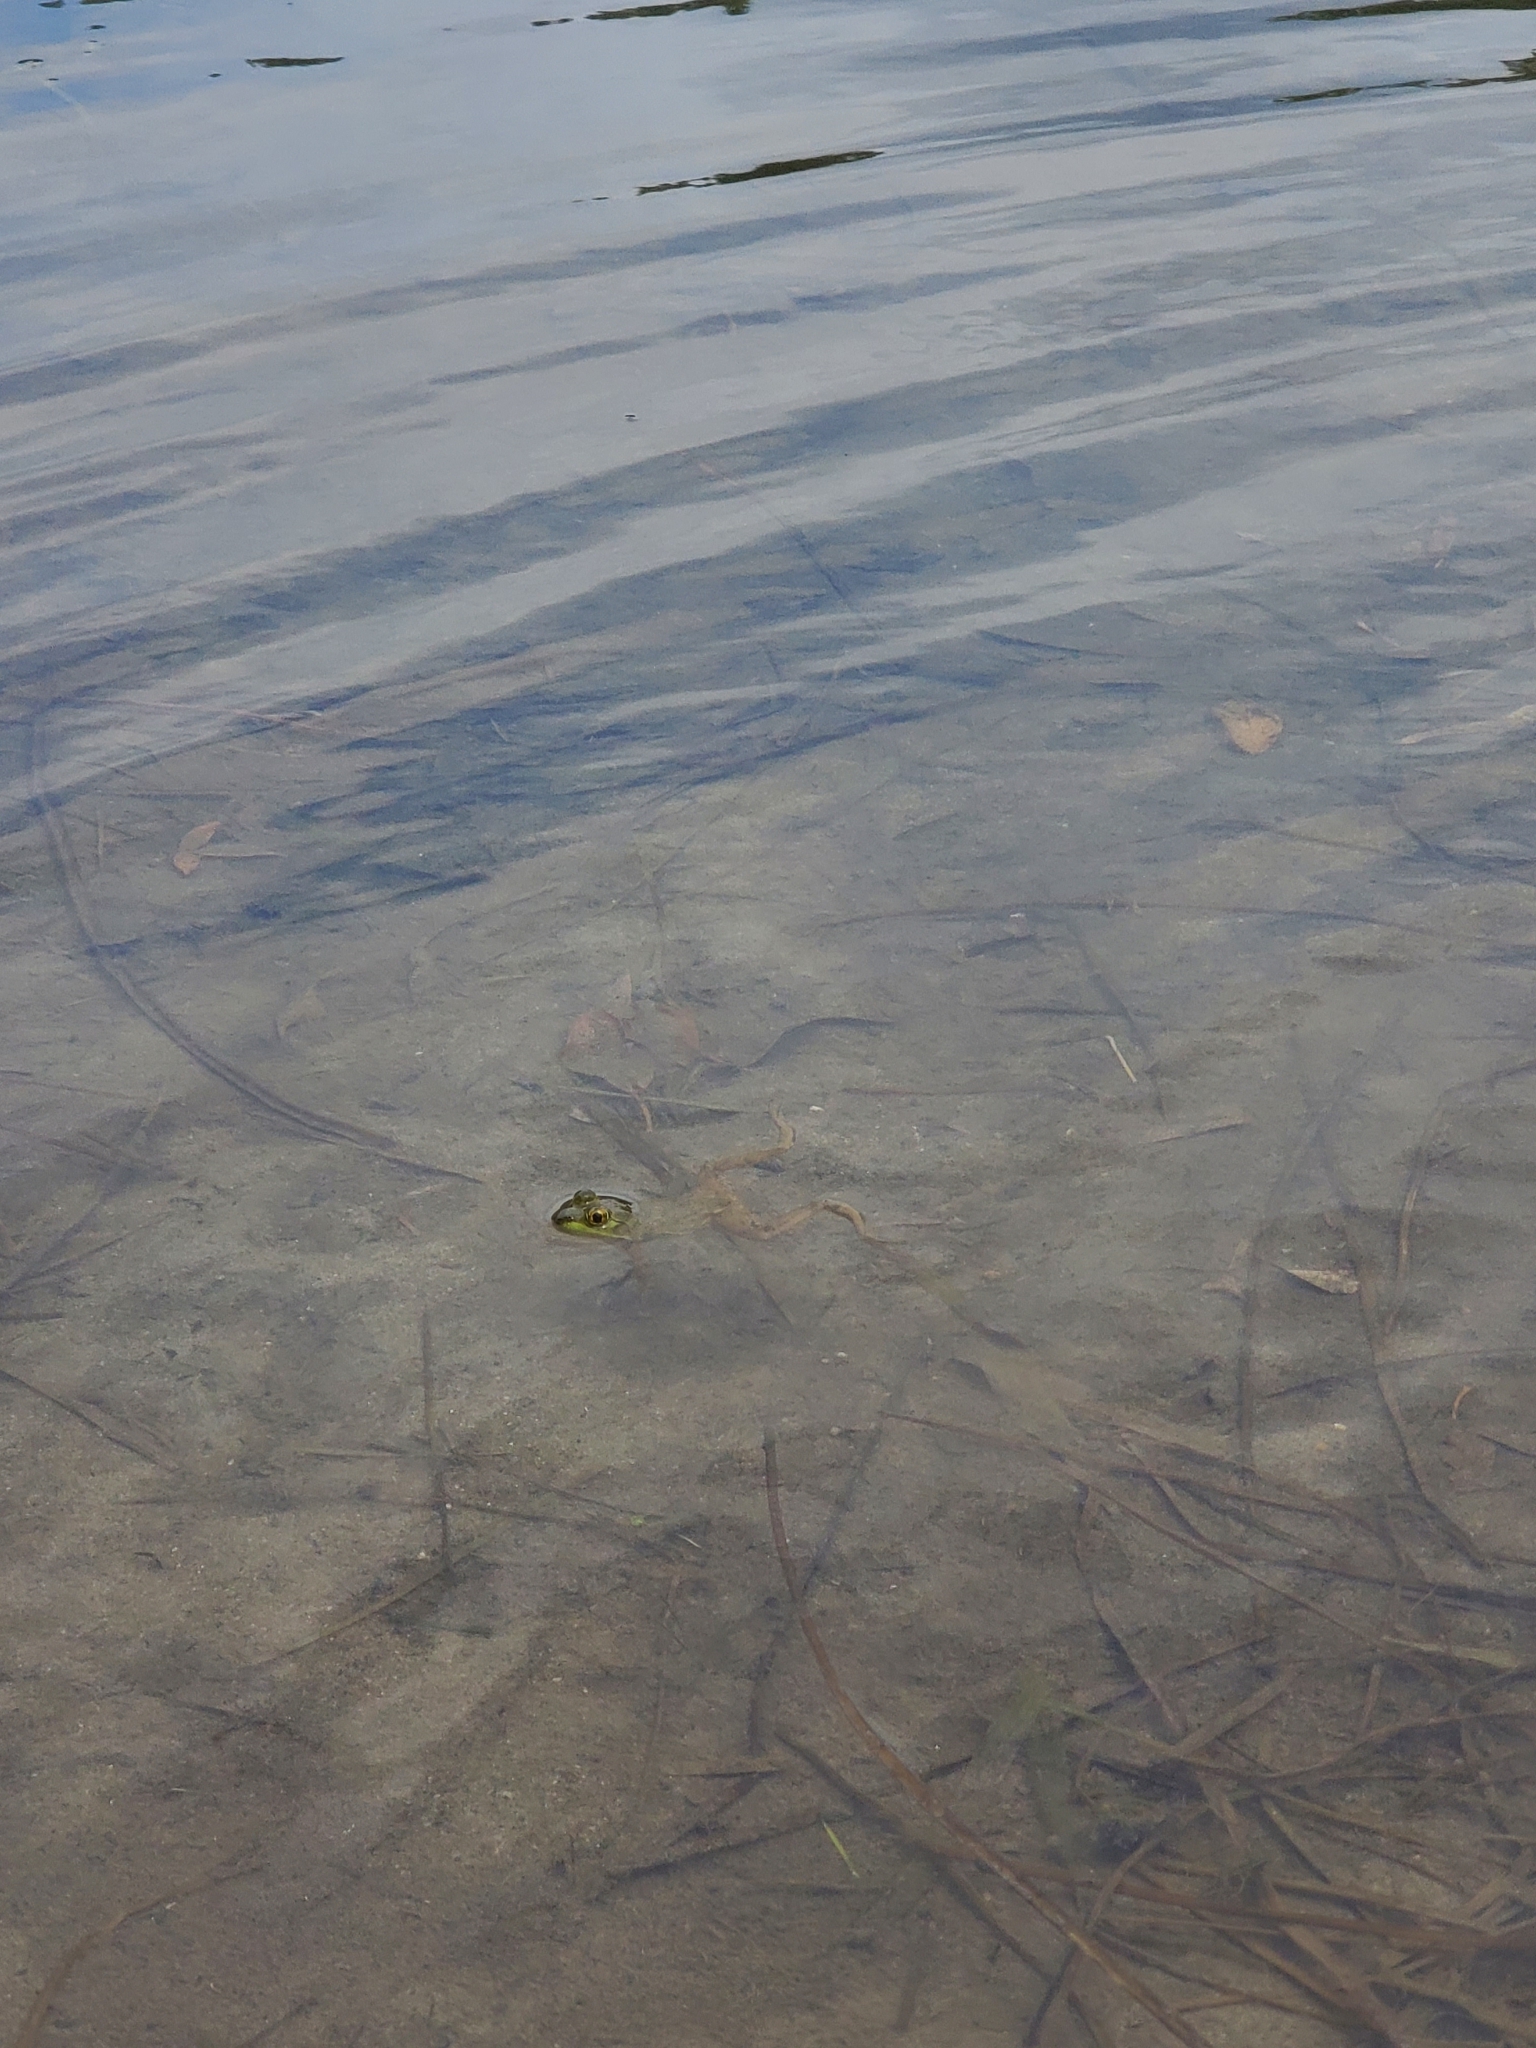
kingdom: Animalia
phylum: Chordata
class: Amphibia
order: Anura
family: Ranidae
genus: Lithobates
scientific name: Lithobates catesbeianus
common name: American bullfrog
